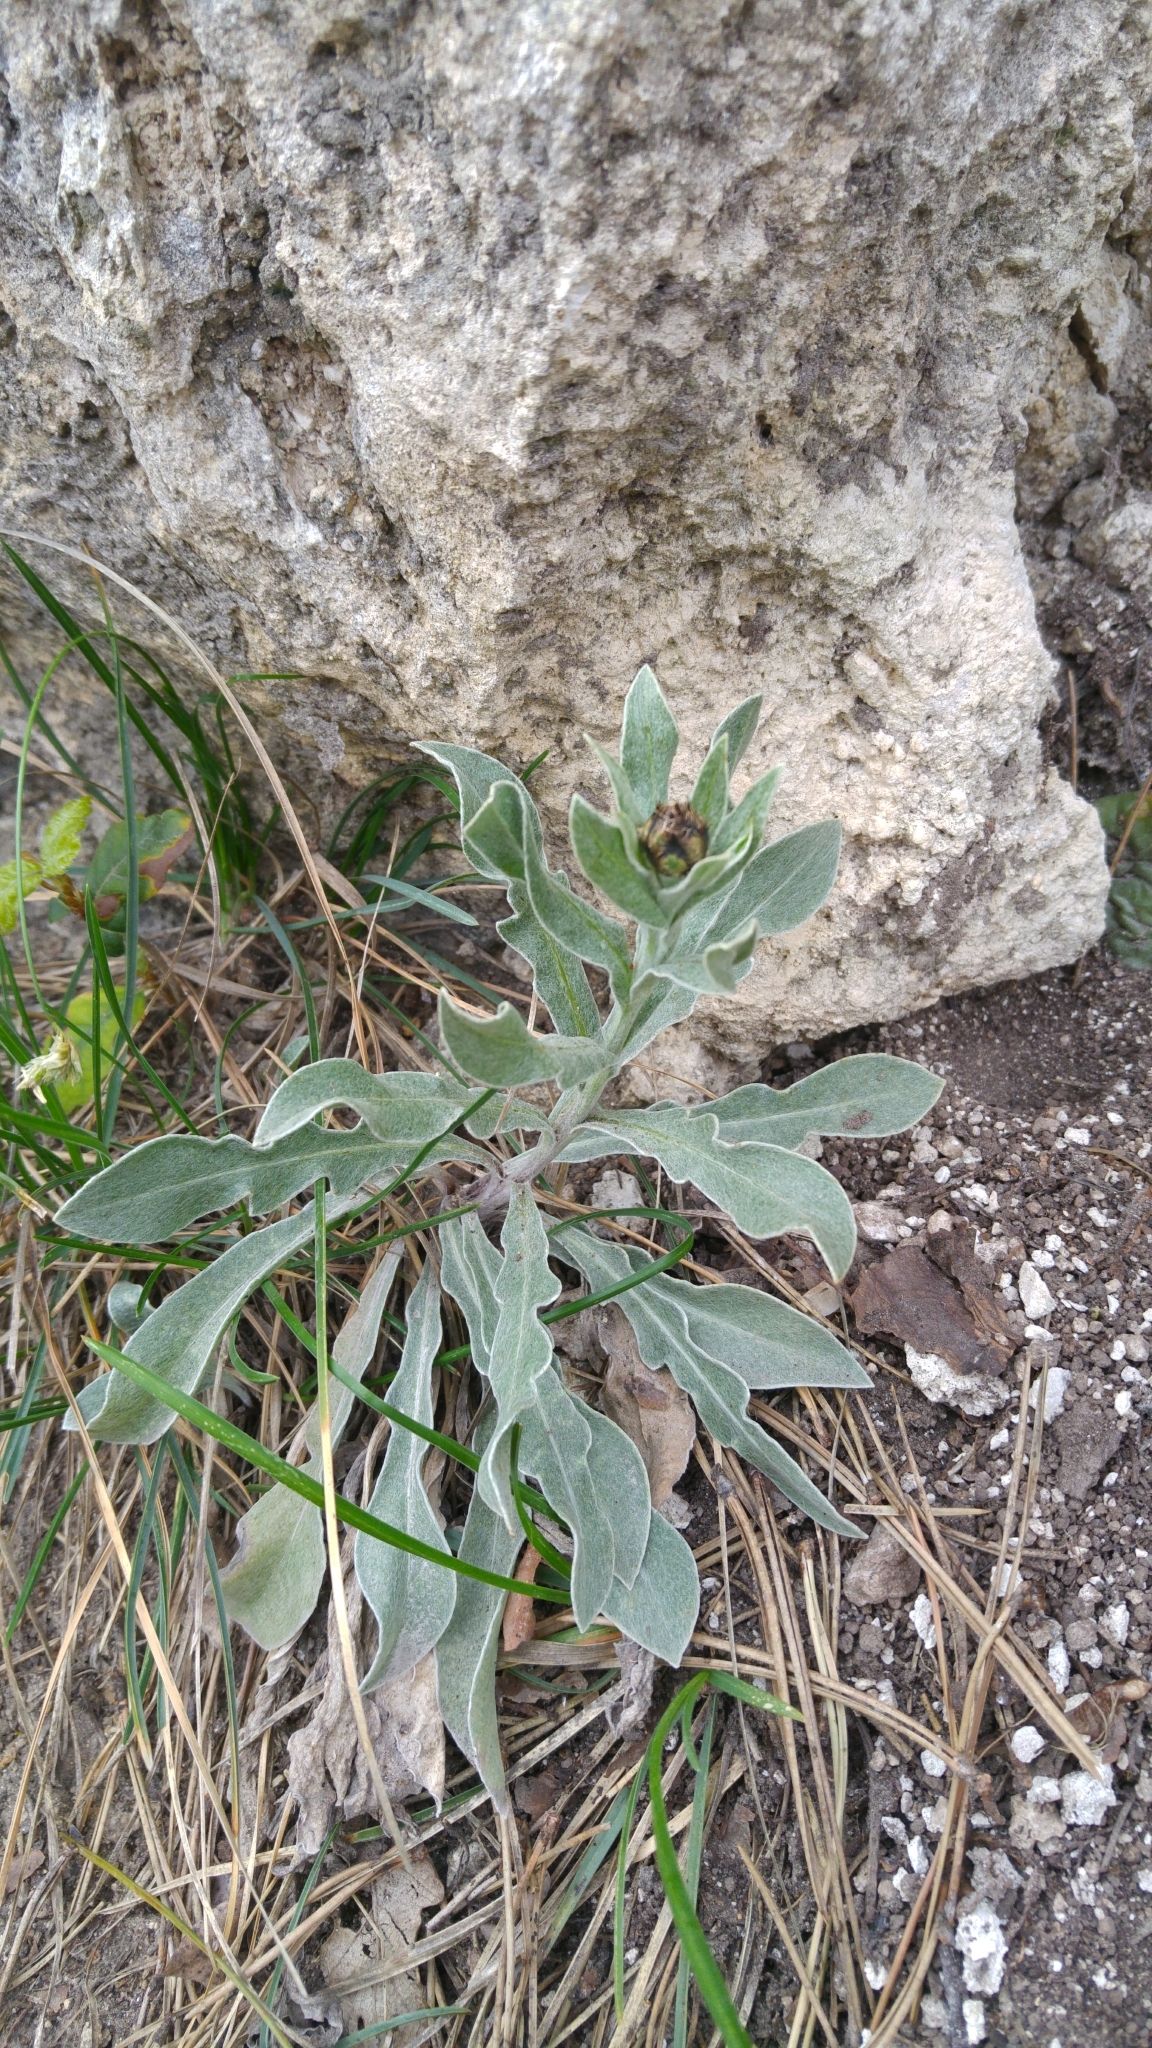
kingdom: Plantae
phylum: Tracheophyta
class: Magnoliopsida
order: Asterales
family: Asteraceae
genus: Centaurea
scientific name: Centaurea triumfettii
